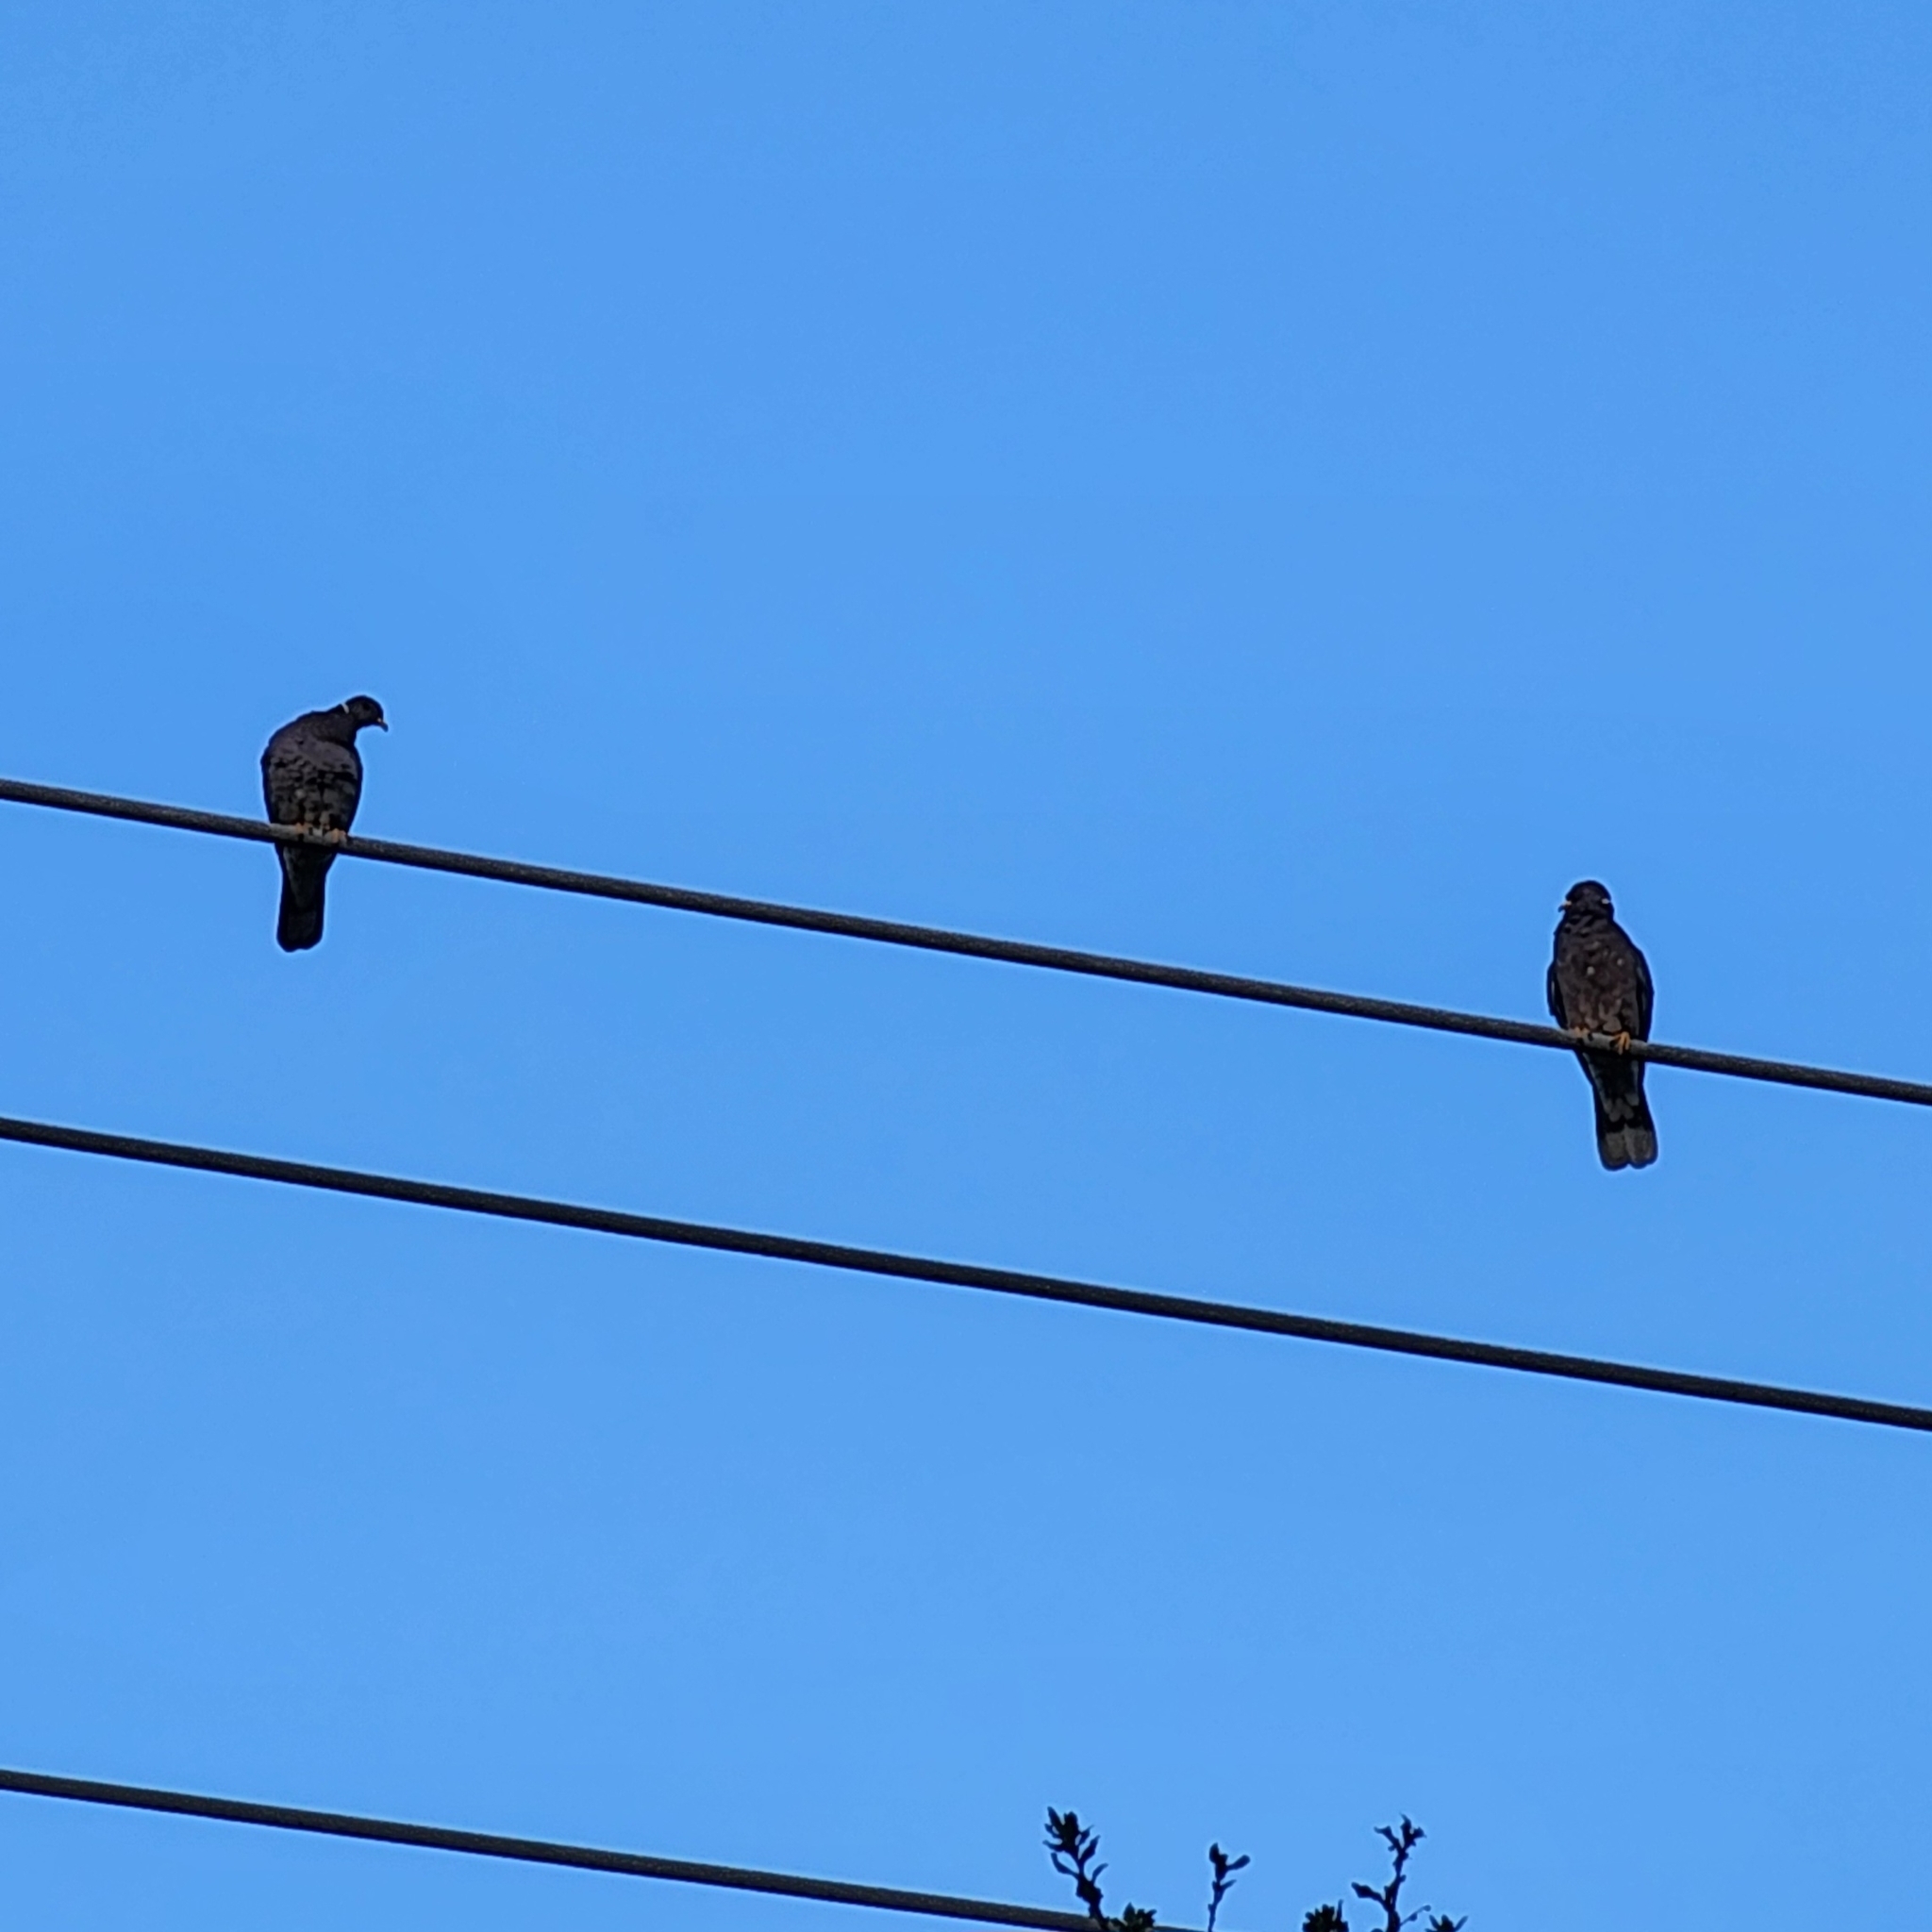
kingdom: Animalia
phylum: Chordata
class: Aves
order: Columbiformes
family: Columbidae
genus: Patagioenas
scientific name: Patagioenas fasciata
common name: Band-tailed pigeon
